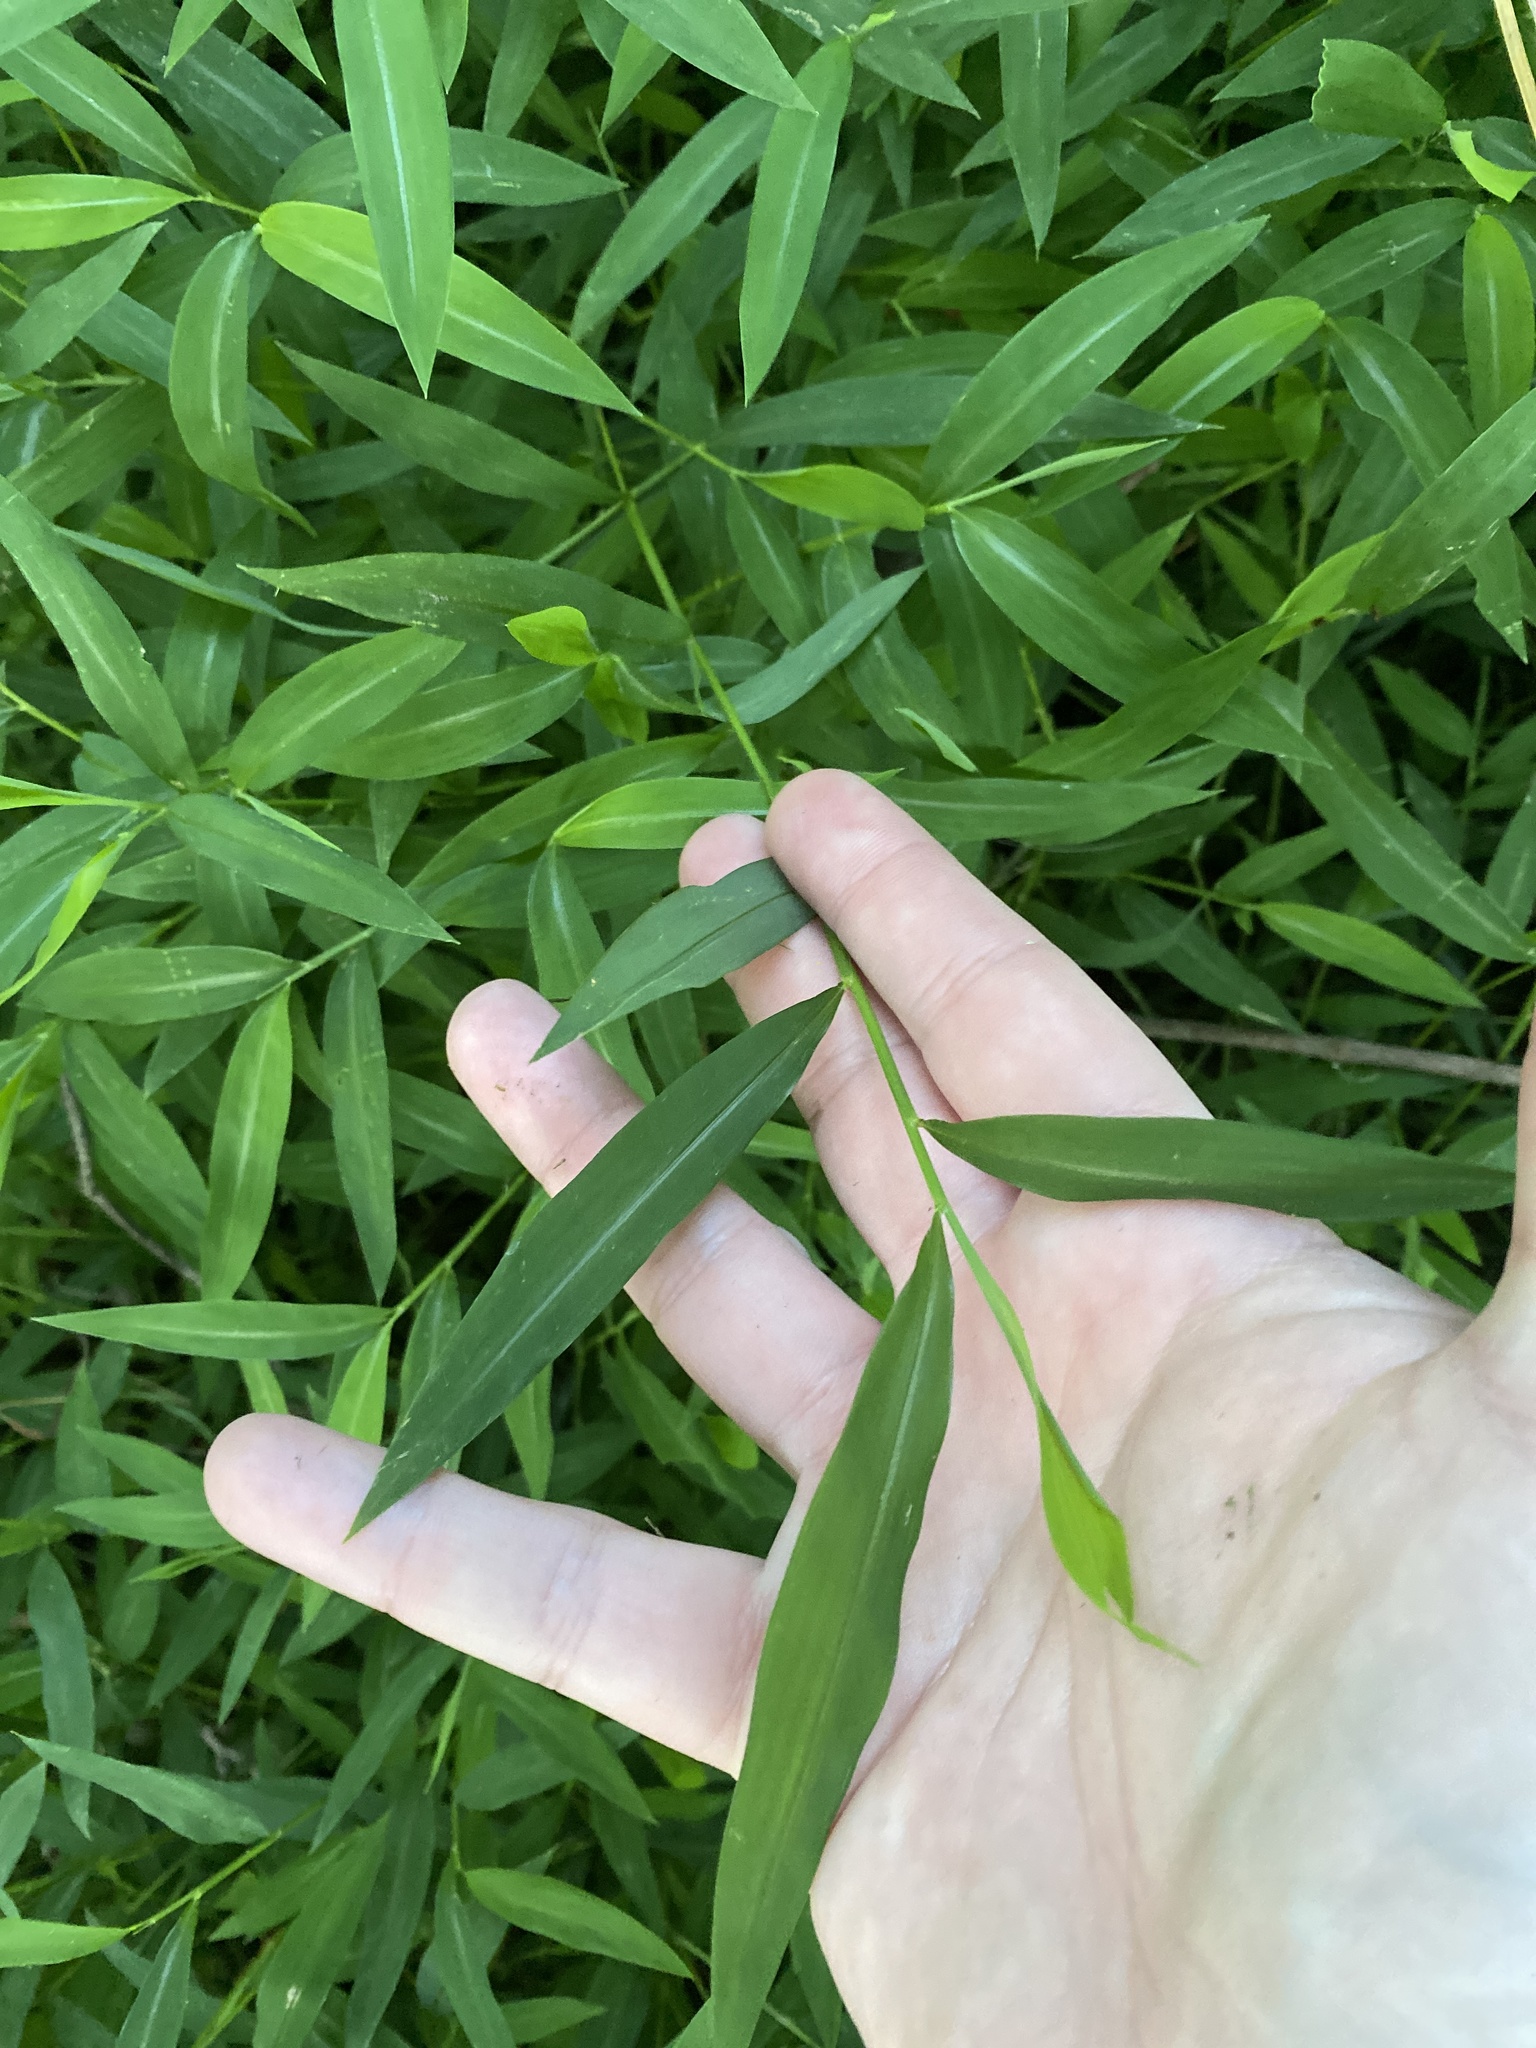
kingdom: Plantae
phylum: Tracheophyta
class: Liliopsida
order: Poales
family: Poaceae
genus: Microstegium
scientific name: Microstegium vimineum
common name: Japanese stiltgrass
